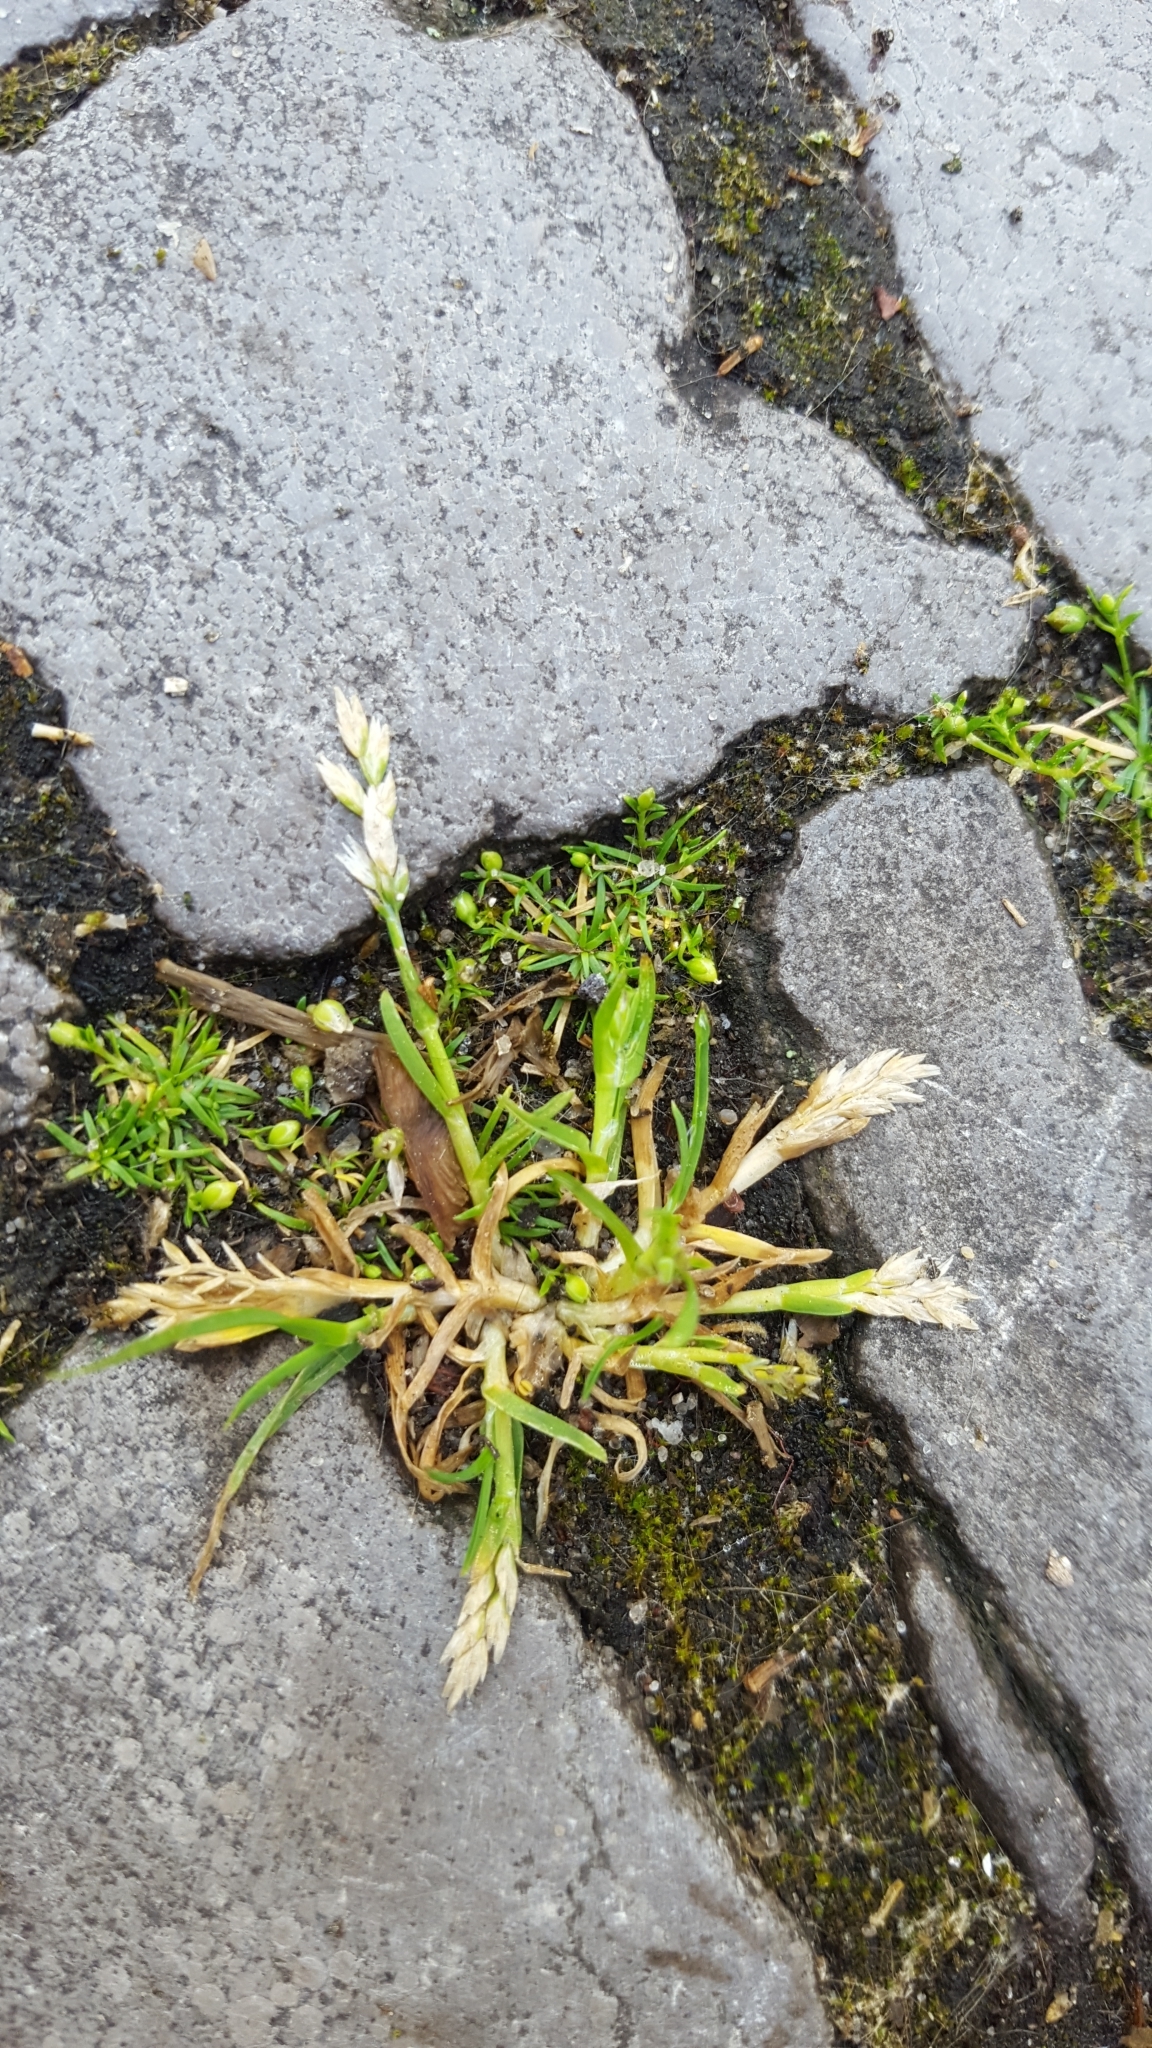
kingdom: Plantae
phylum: Tracheophyta
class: Magnoliopsida
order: Caryophyllales
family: Caryophyllaceae
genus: Sagina
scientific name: Sagina procumbens
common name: Procumbent pearlwort
